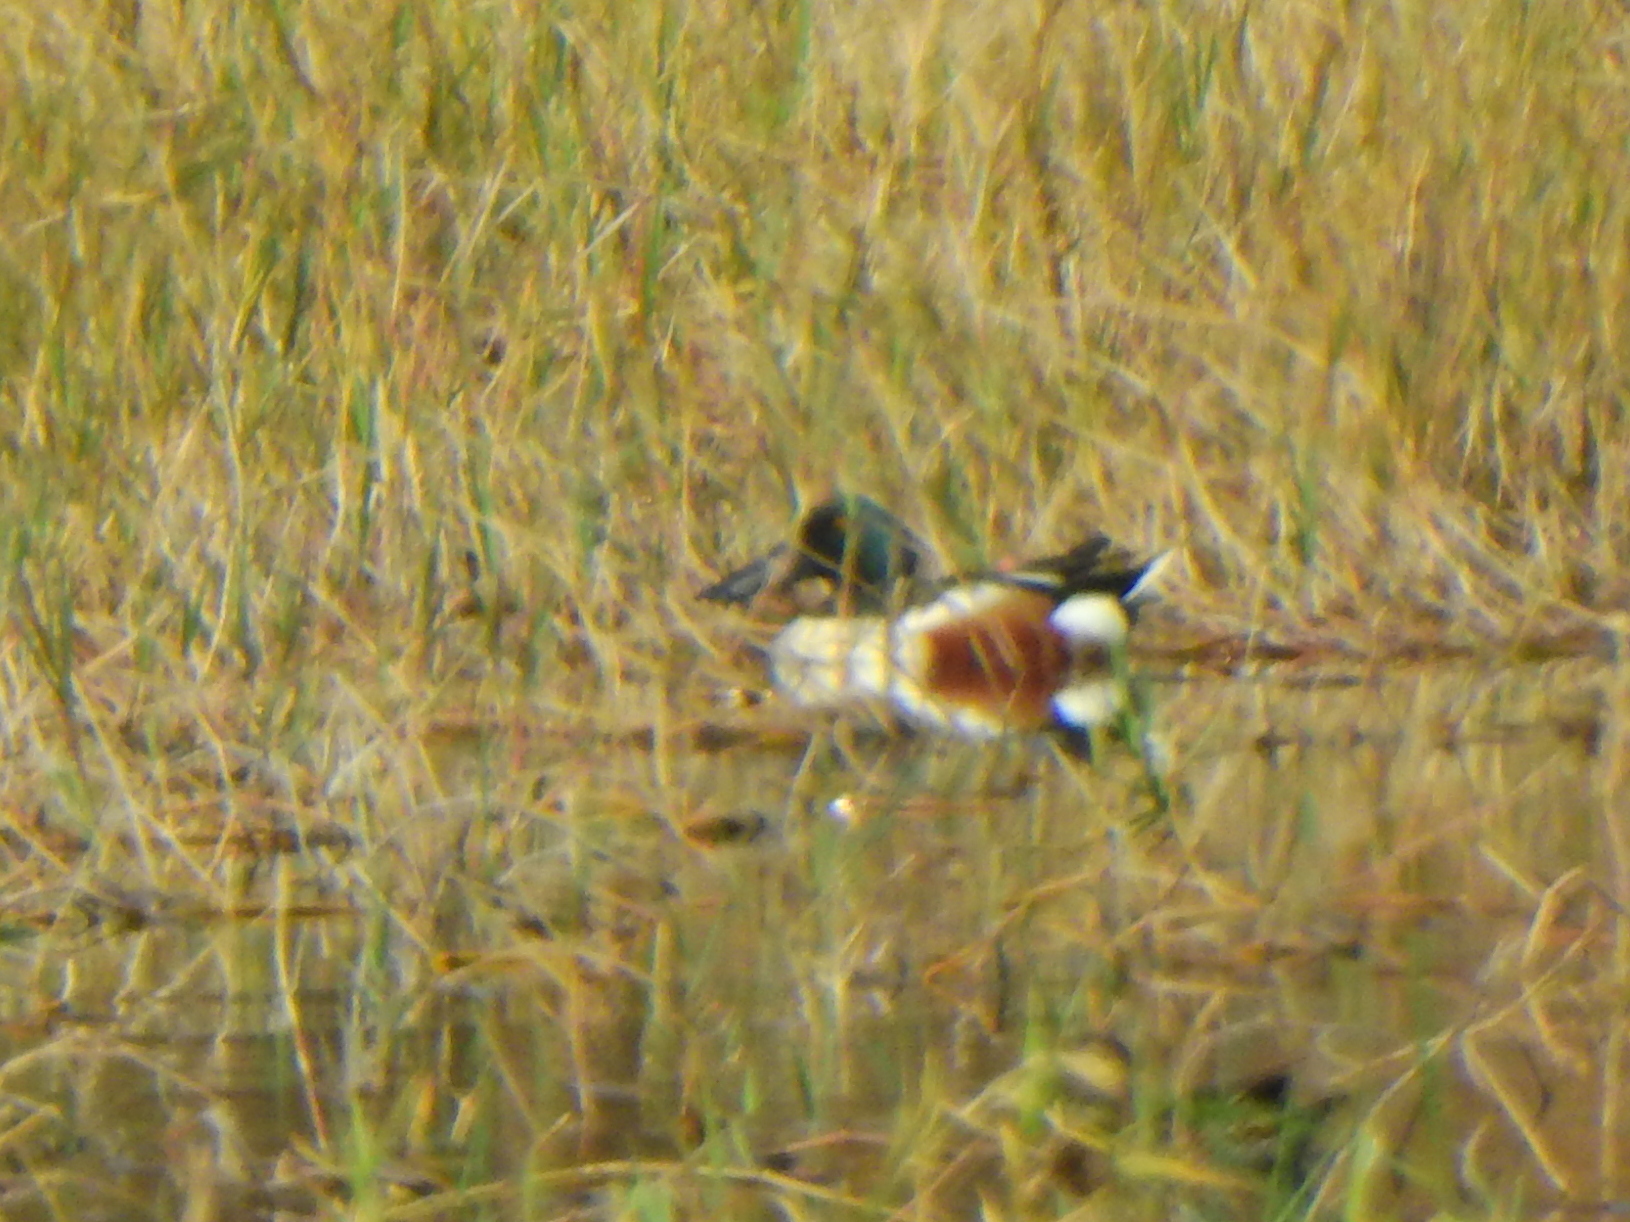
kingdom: Animalia
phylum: Chordata
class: Aves
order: Anseriformes
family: Anatidae
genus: Spatula
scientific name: Spatula clypeata
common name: Northern shoveler
